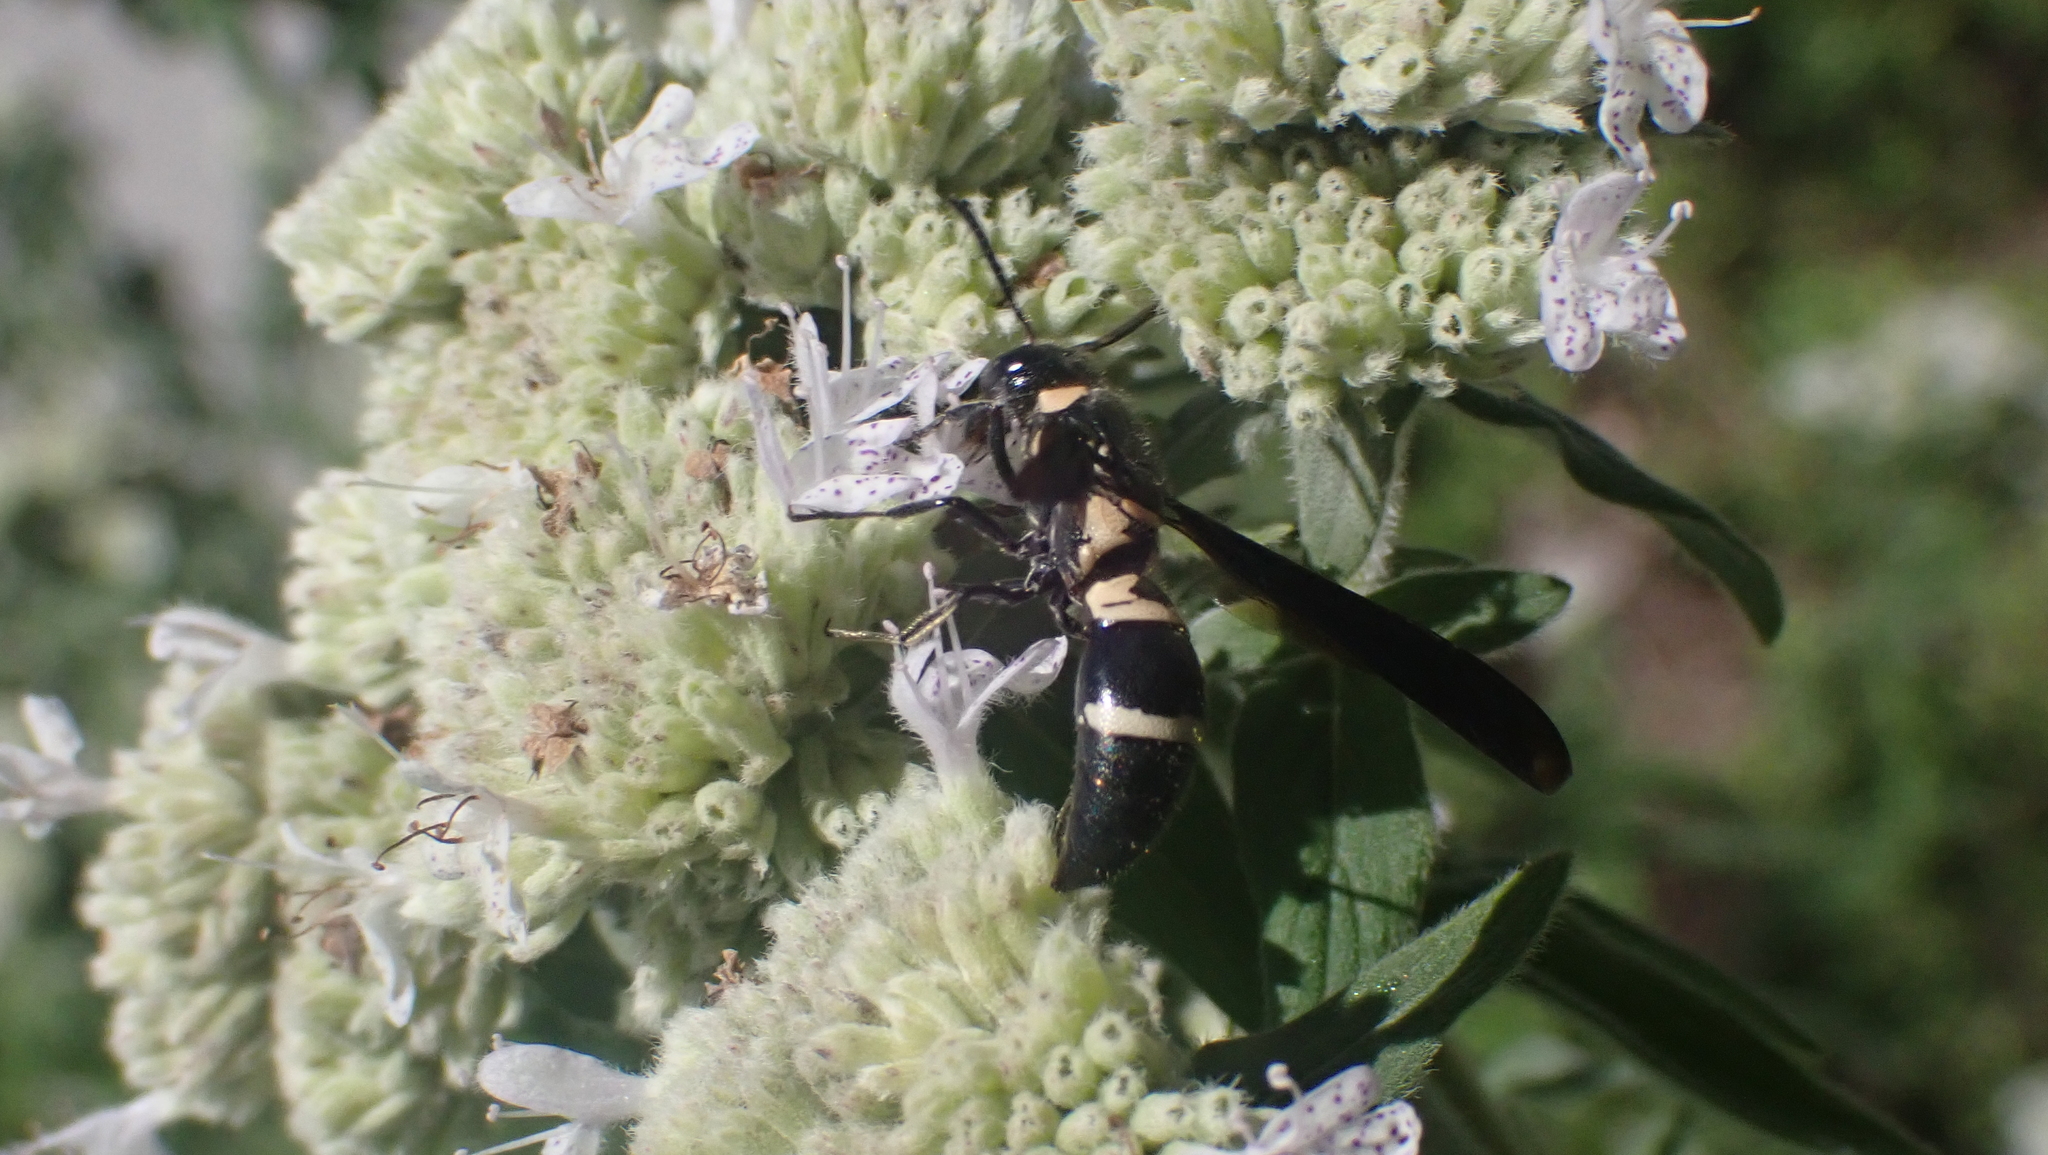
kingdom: Animalia
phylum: Arthropoda
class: Insecta
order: Hymenoptera
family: Eumenidae
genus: Pseudodynerus
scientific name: Pseudodynerus quadrisectus
